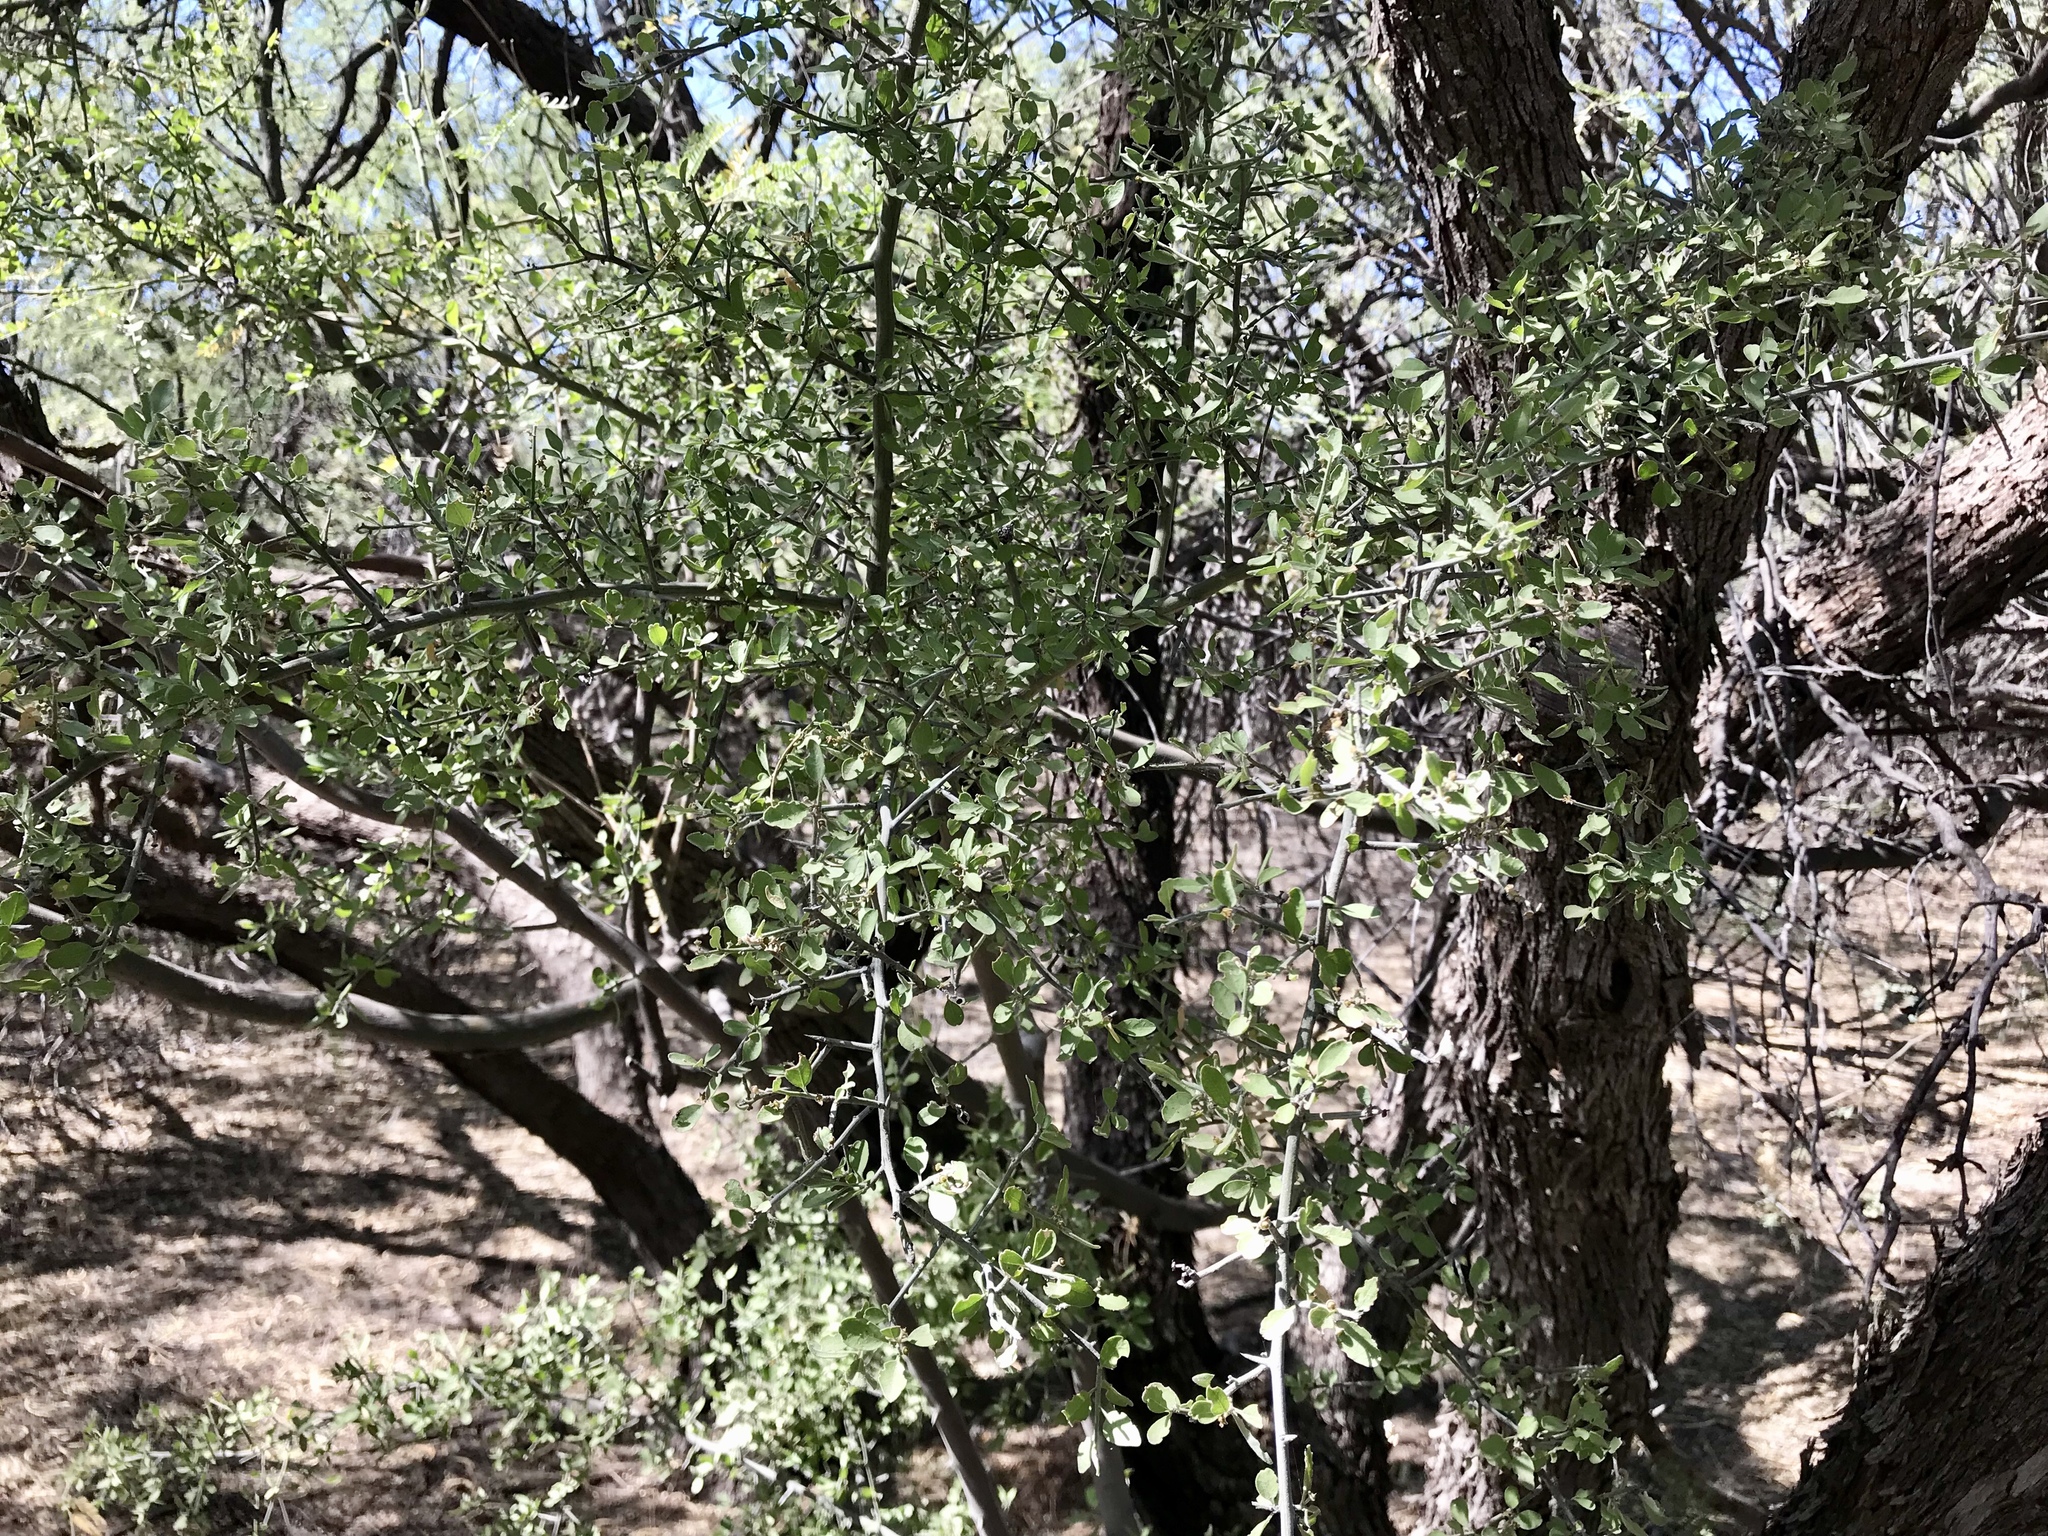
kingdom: Plantae
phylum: Tracheophyta
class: Magnoliopsida
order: Rosales
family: Cannabaceae
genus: Celtis
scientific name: Celtis pallida
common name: Desert hackberry
